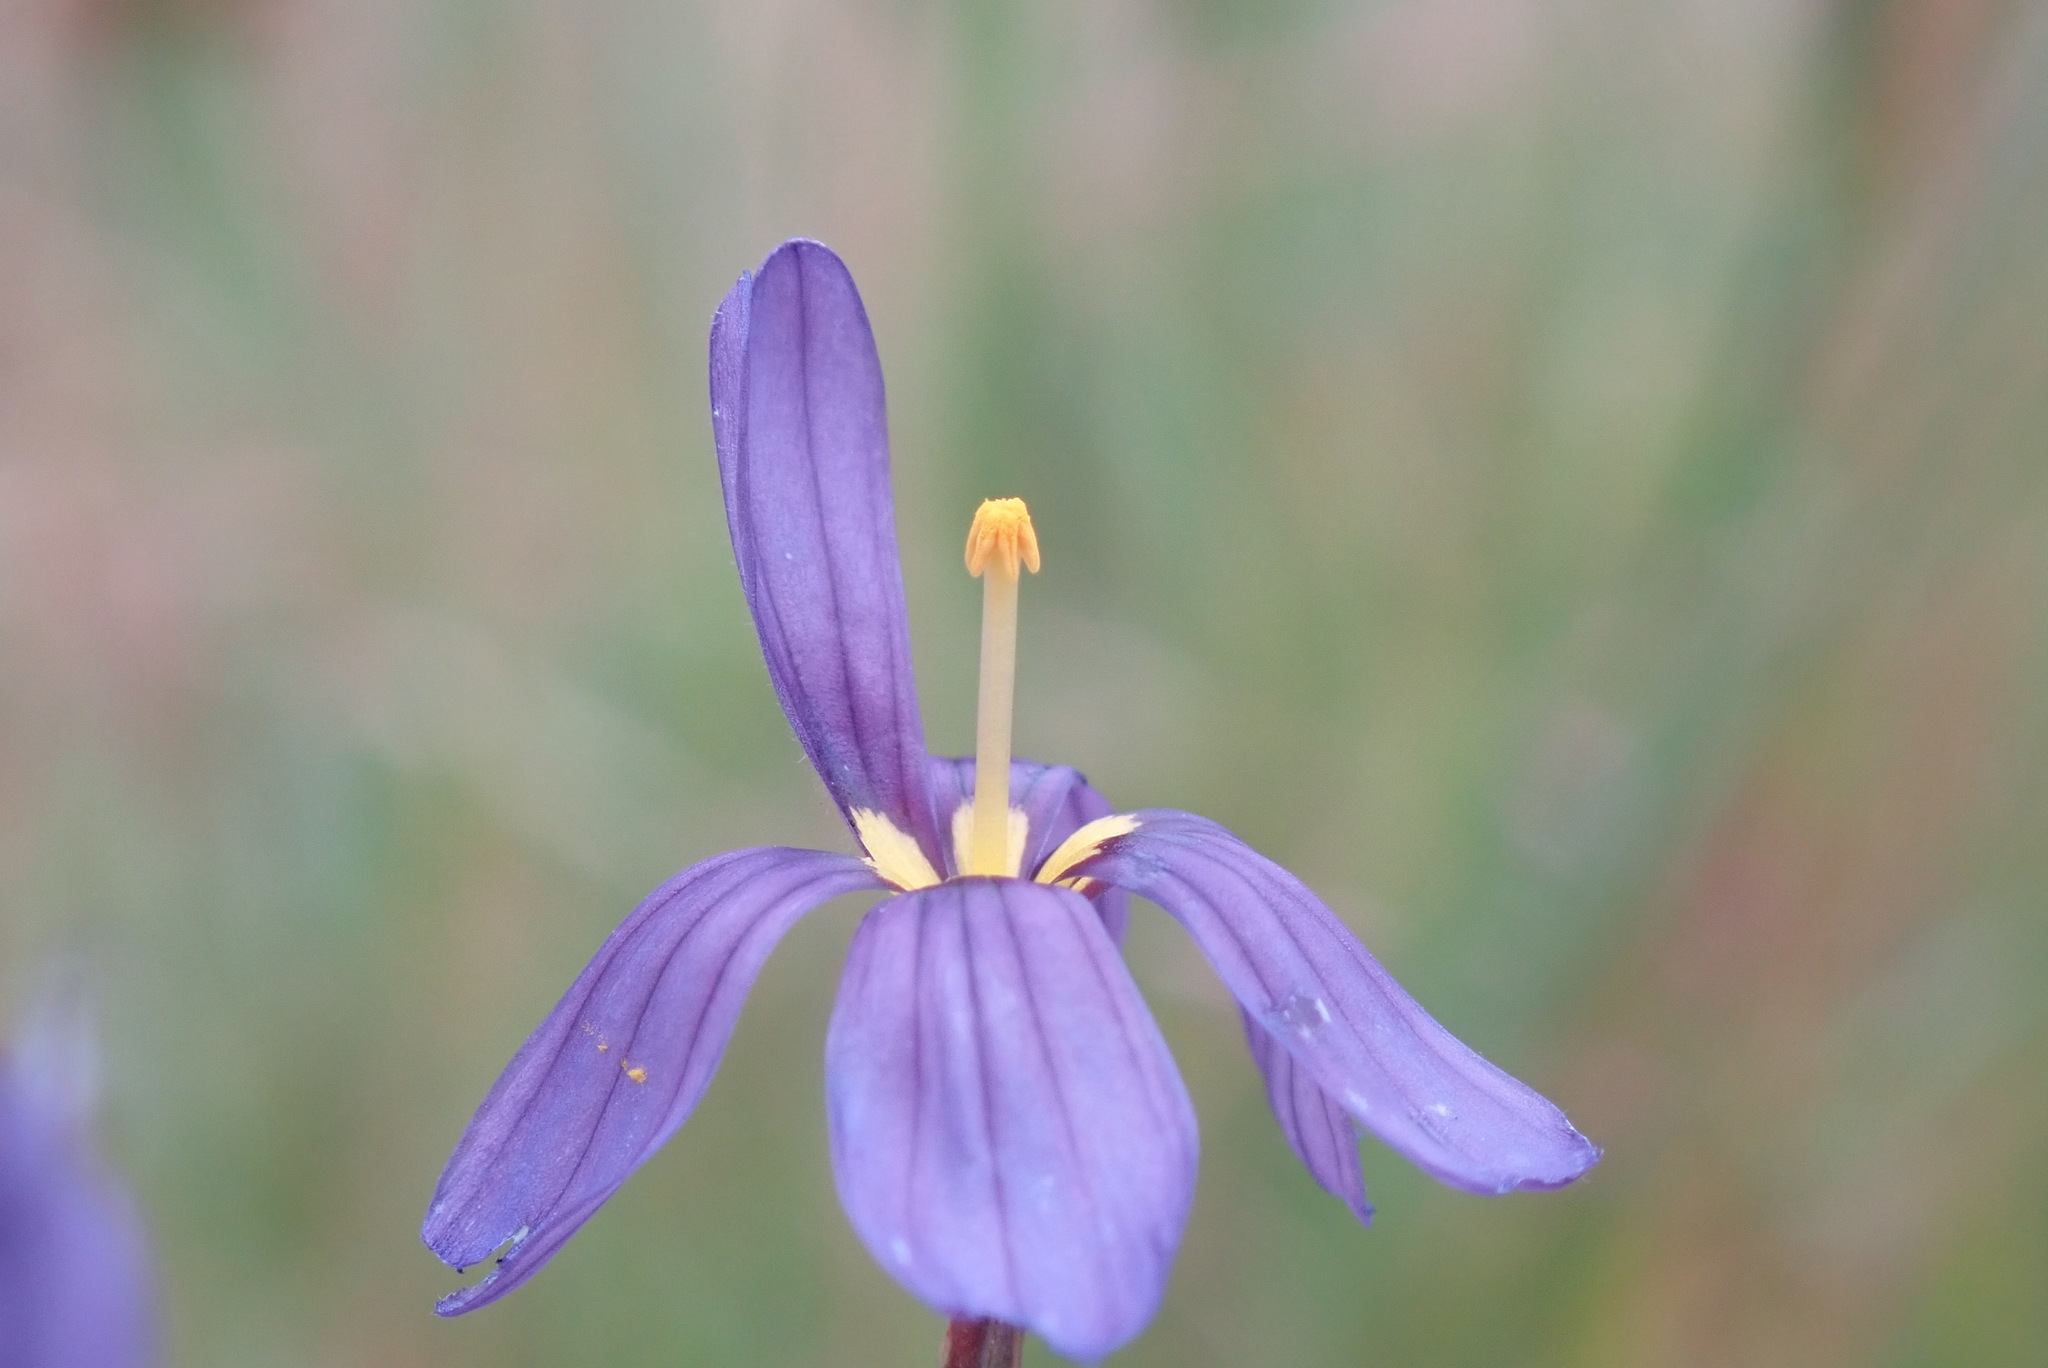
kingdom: Plantae
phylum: Tracheophyta
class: Liliopsida
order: Asparagales
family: Iridaceae
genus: Sisyrinchium
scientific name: Sisyrinchium bellum
